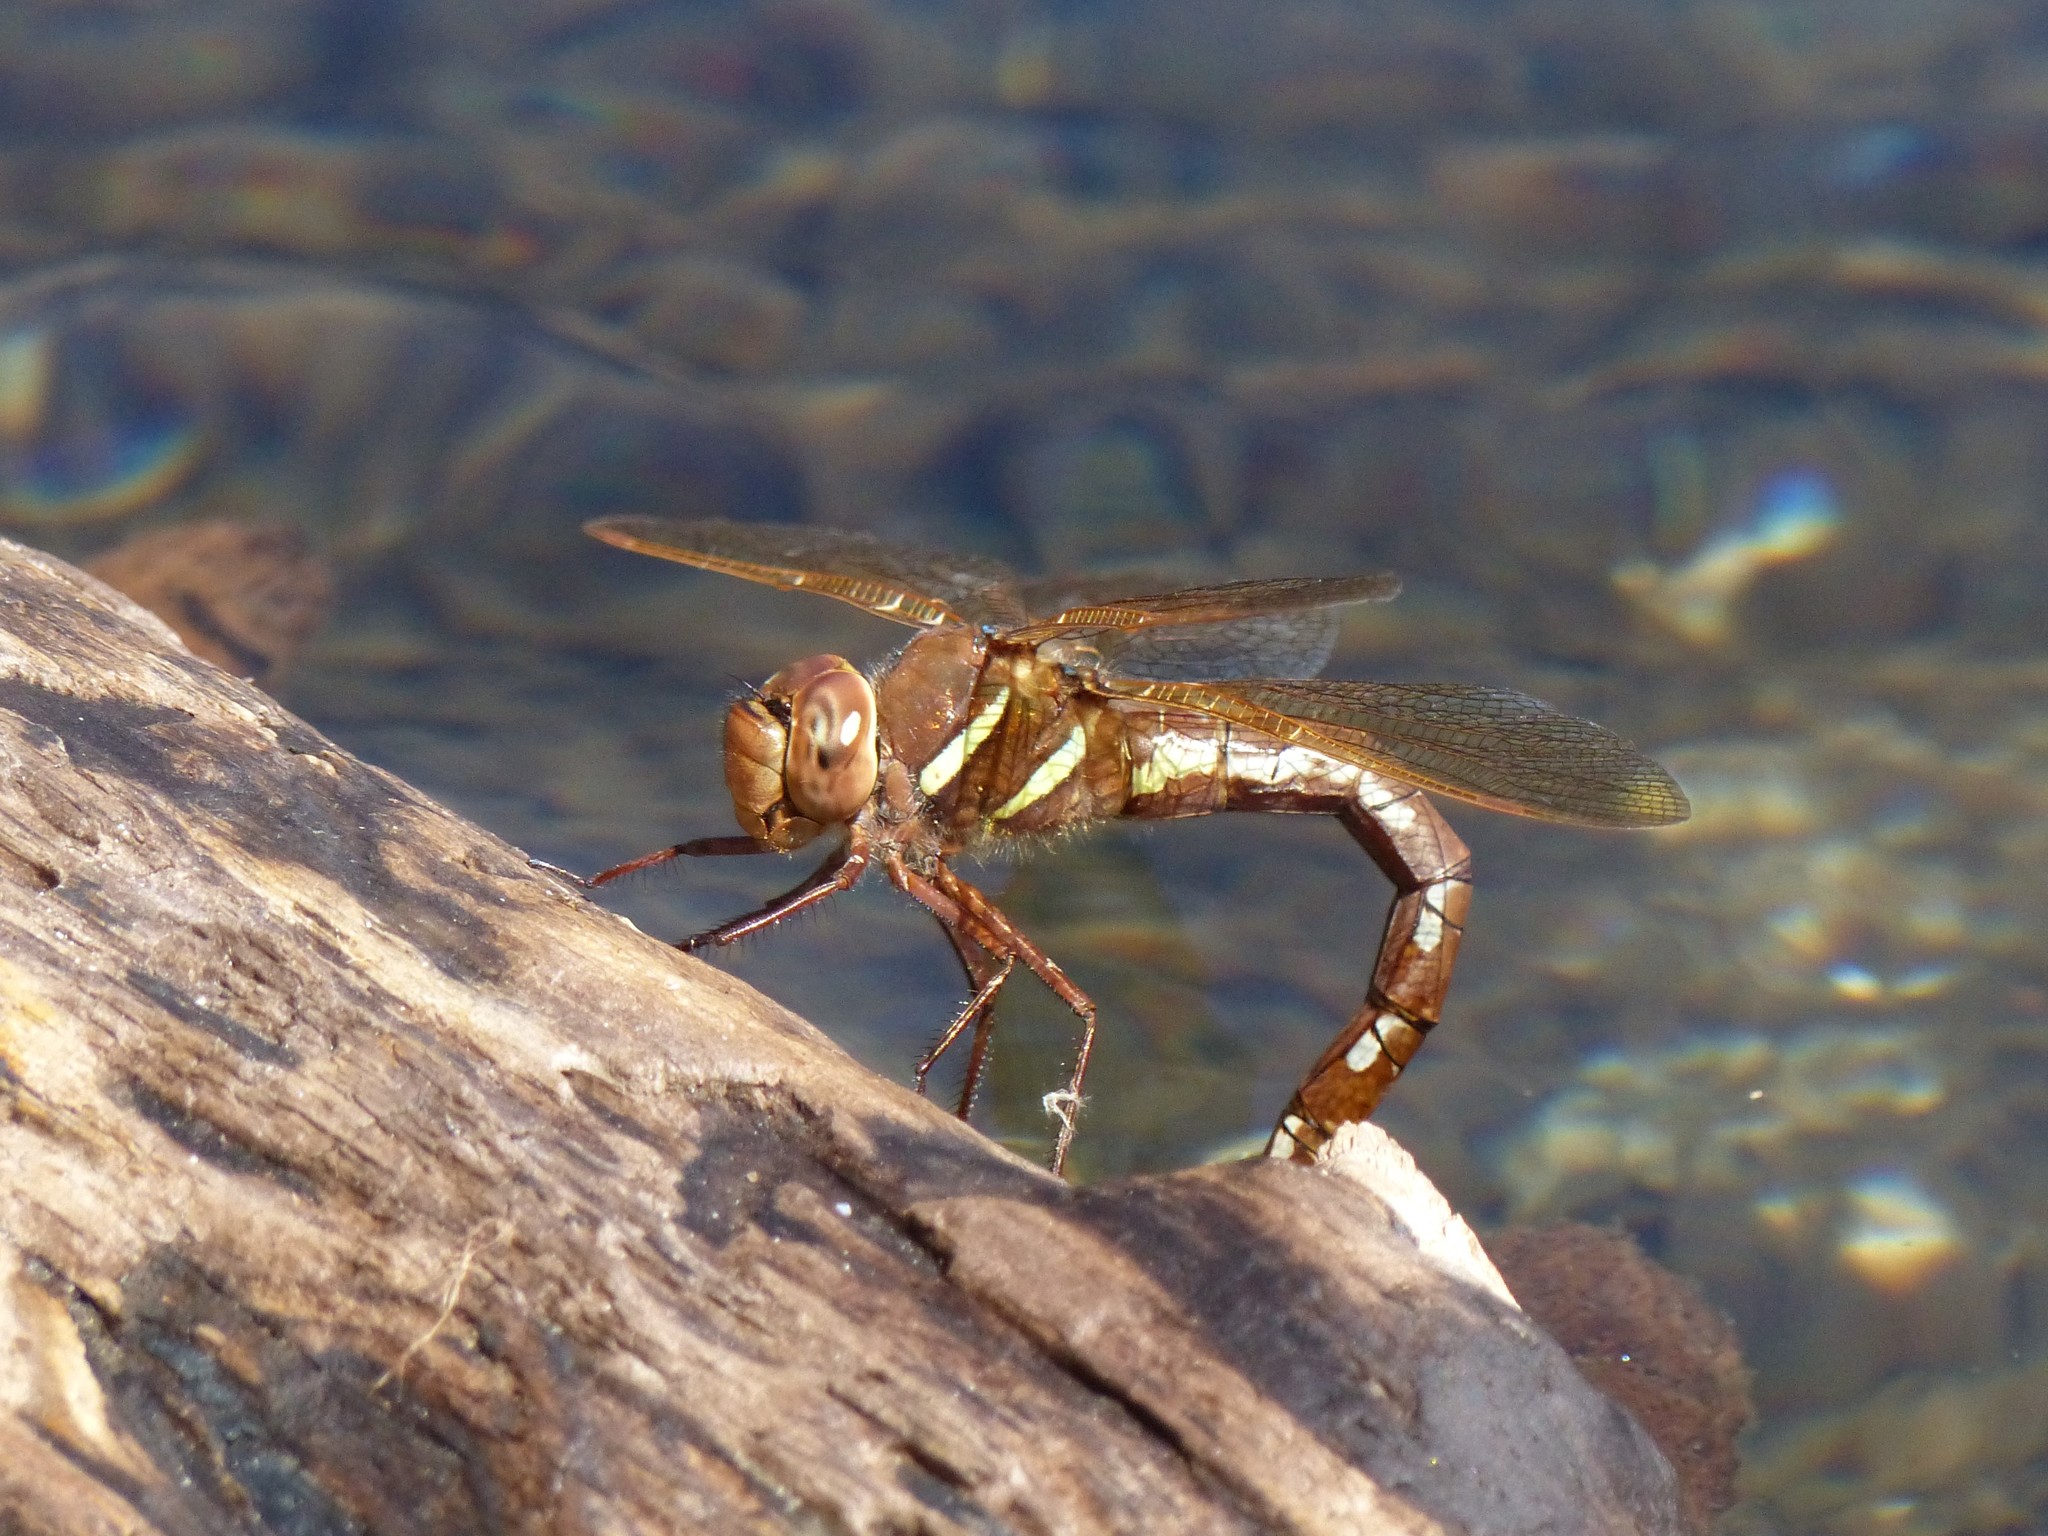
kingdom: Animalia
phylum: Arthropoda
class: Insecta
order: Odonata
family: Aeshnidae
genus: Aeshna
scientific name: Aeshna grandis
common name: Brown hawker
